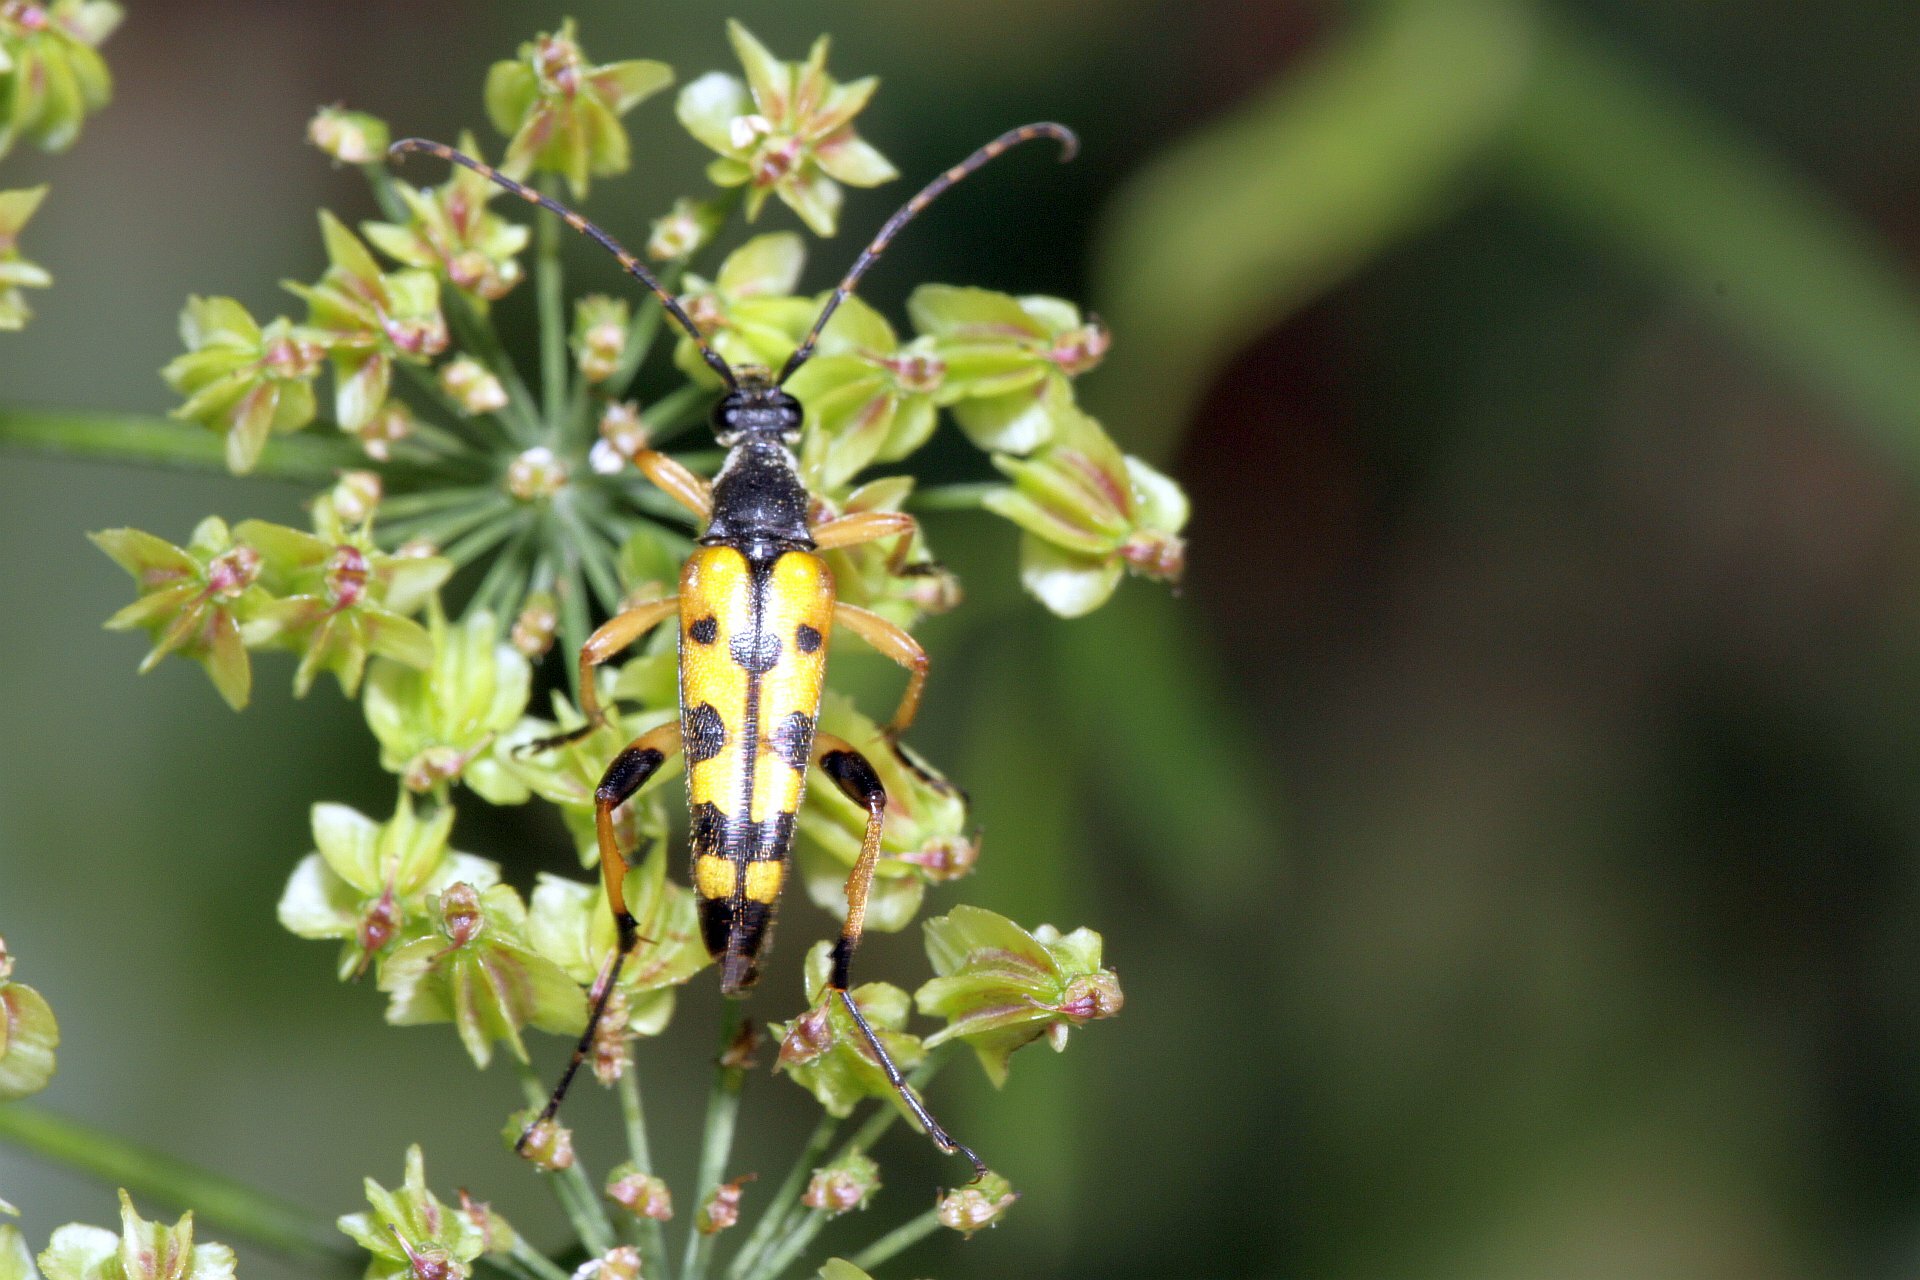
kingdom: Animalia
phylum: Arthropoda
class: Insecta
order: Coleoptera
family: Cerambycidae
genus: Rutpela
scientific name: Rutpela maculata
